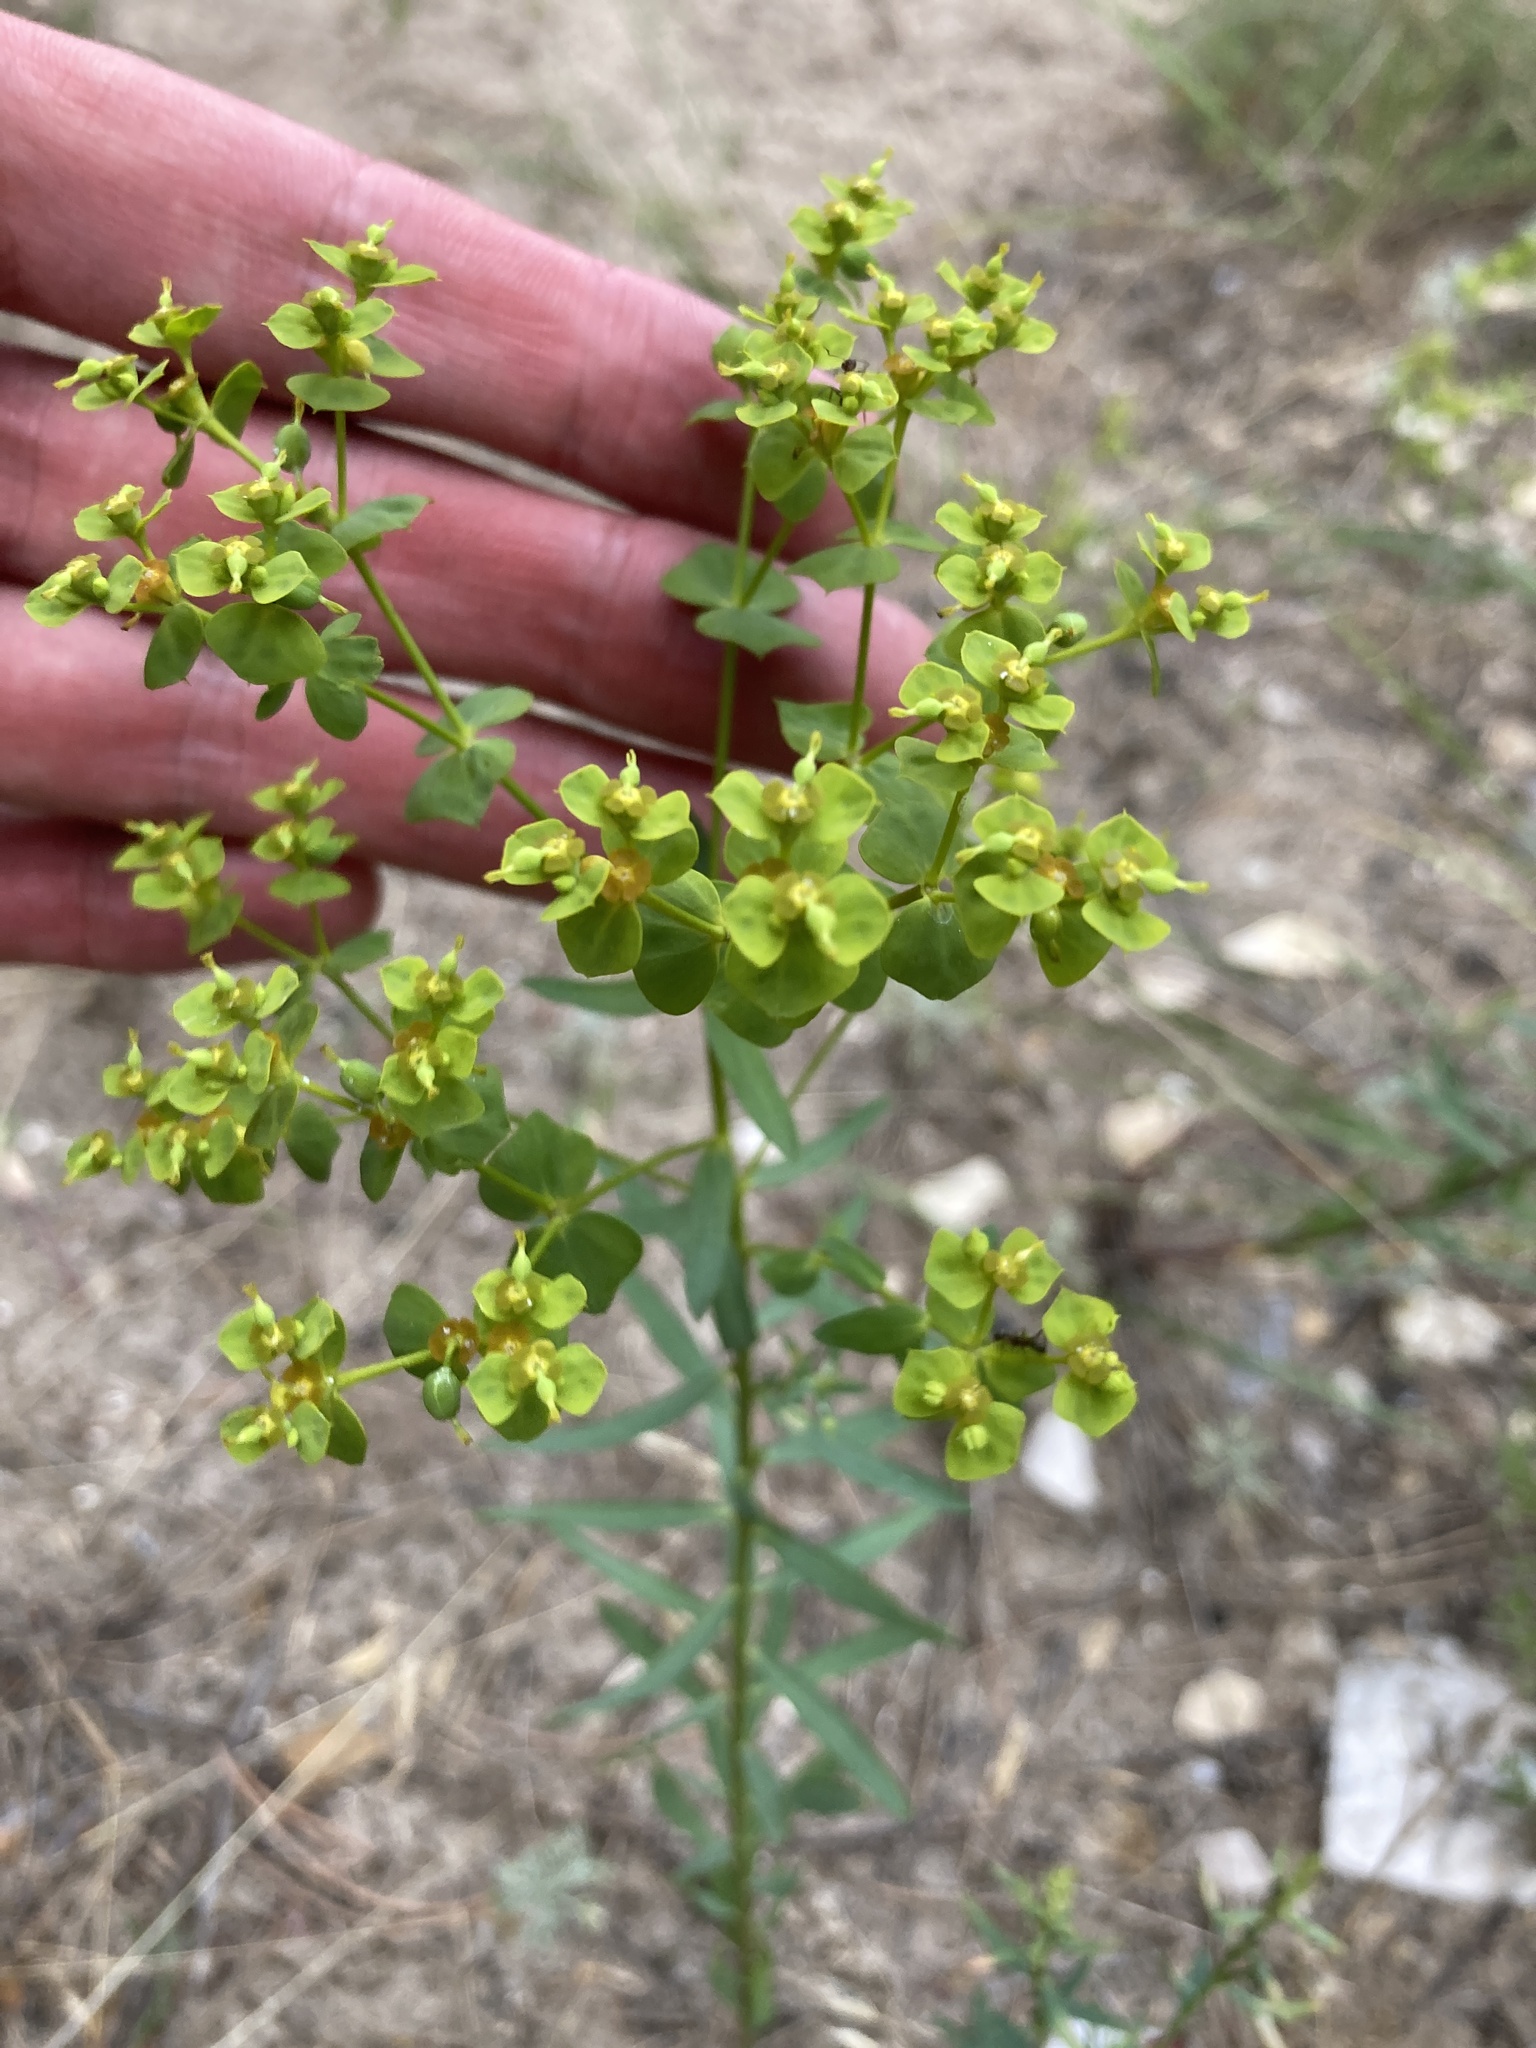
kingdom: Plantae
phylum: Tracheophyta
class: Magnoliopsida
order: Malpighiales
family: Euphorbiaceae
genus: Euphorbia
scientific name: Euphorbia seguieriana
